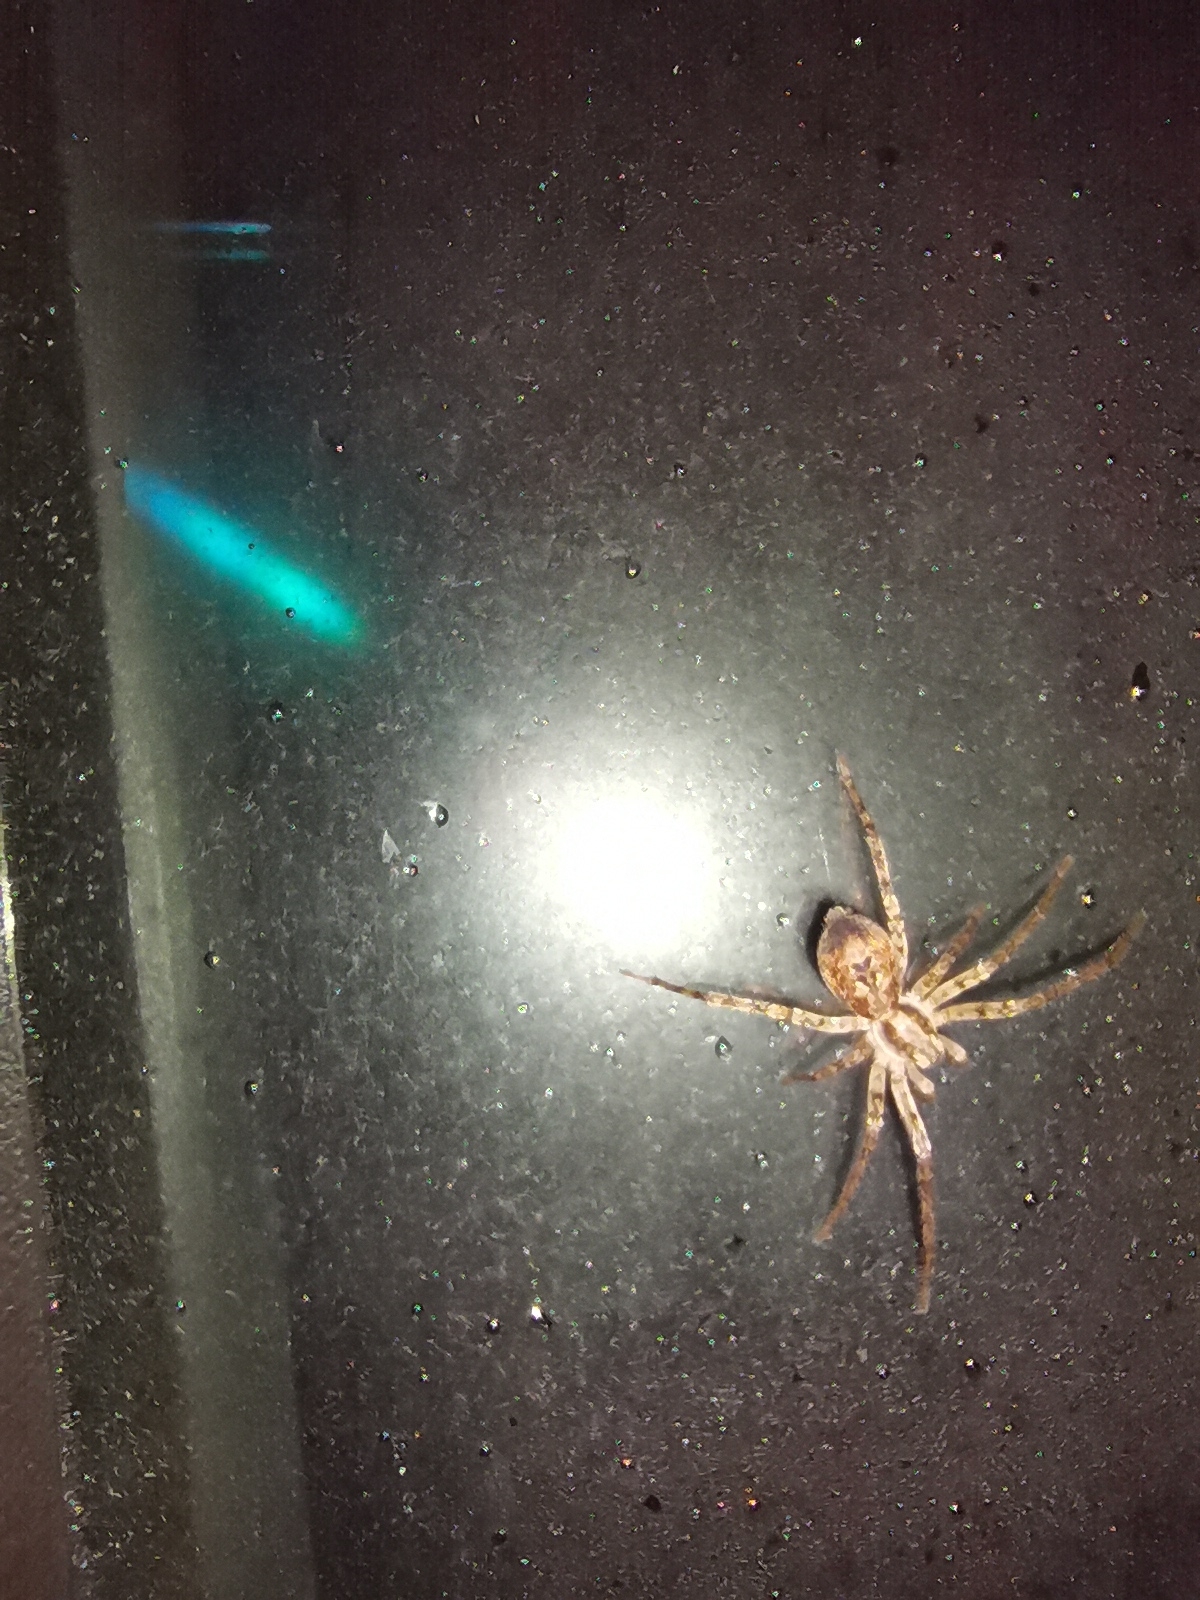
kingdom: Animalia
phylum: Arthropoda
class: Arachnida
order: Araneae
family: Anyphaenidae
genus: Anyphaena
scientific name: Anyphaena accentuata
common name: Buzzing spider
